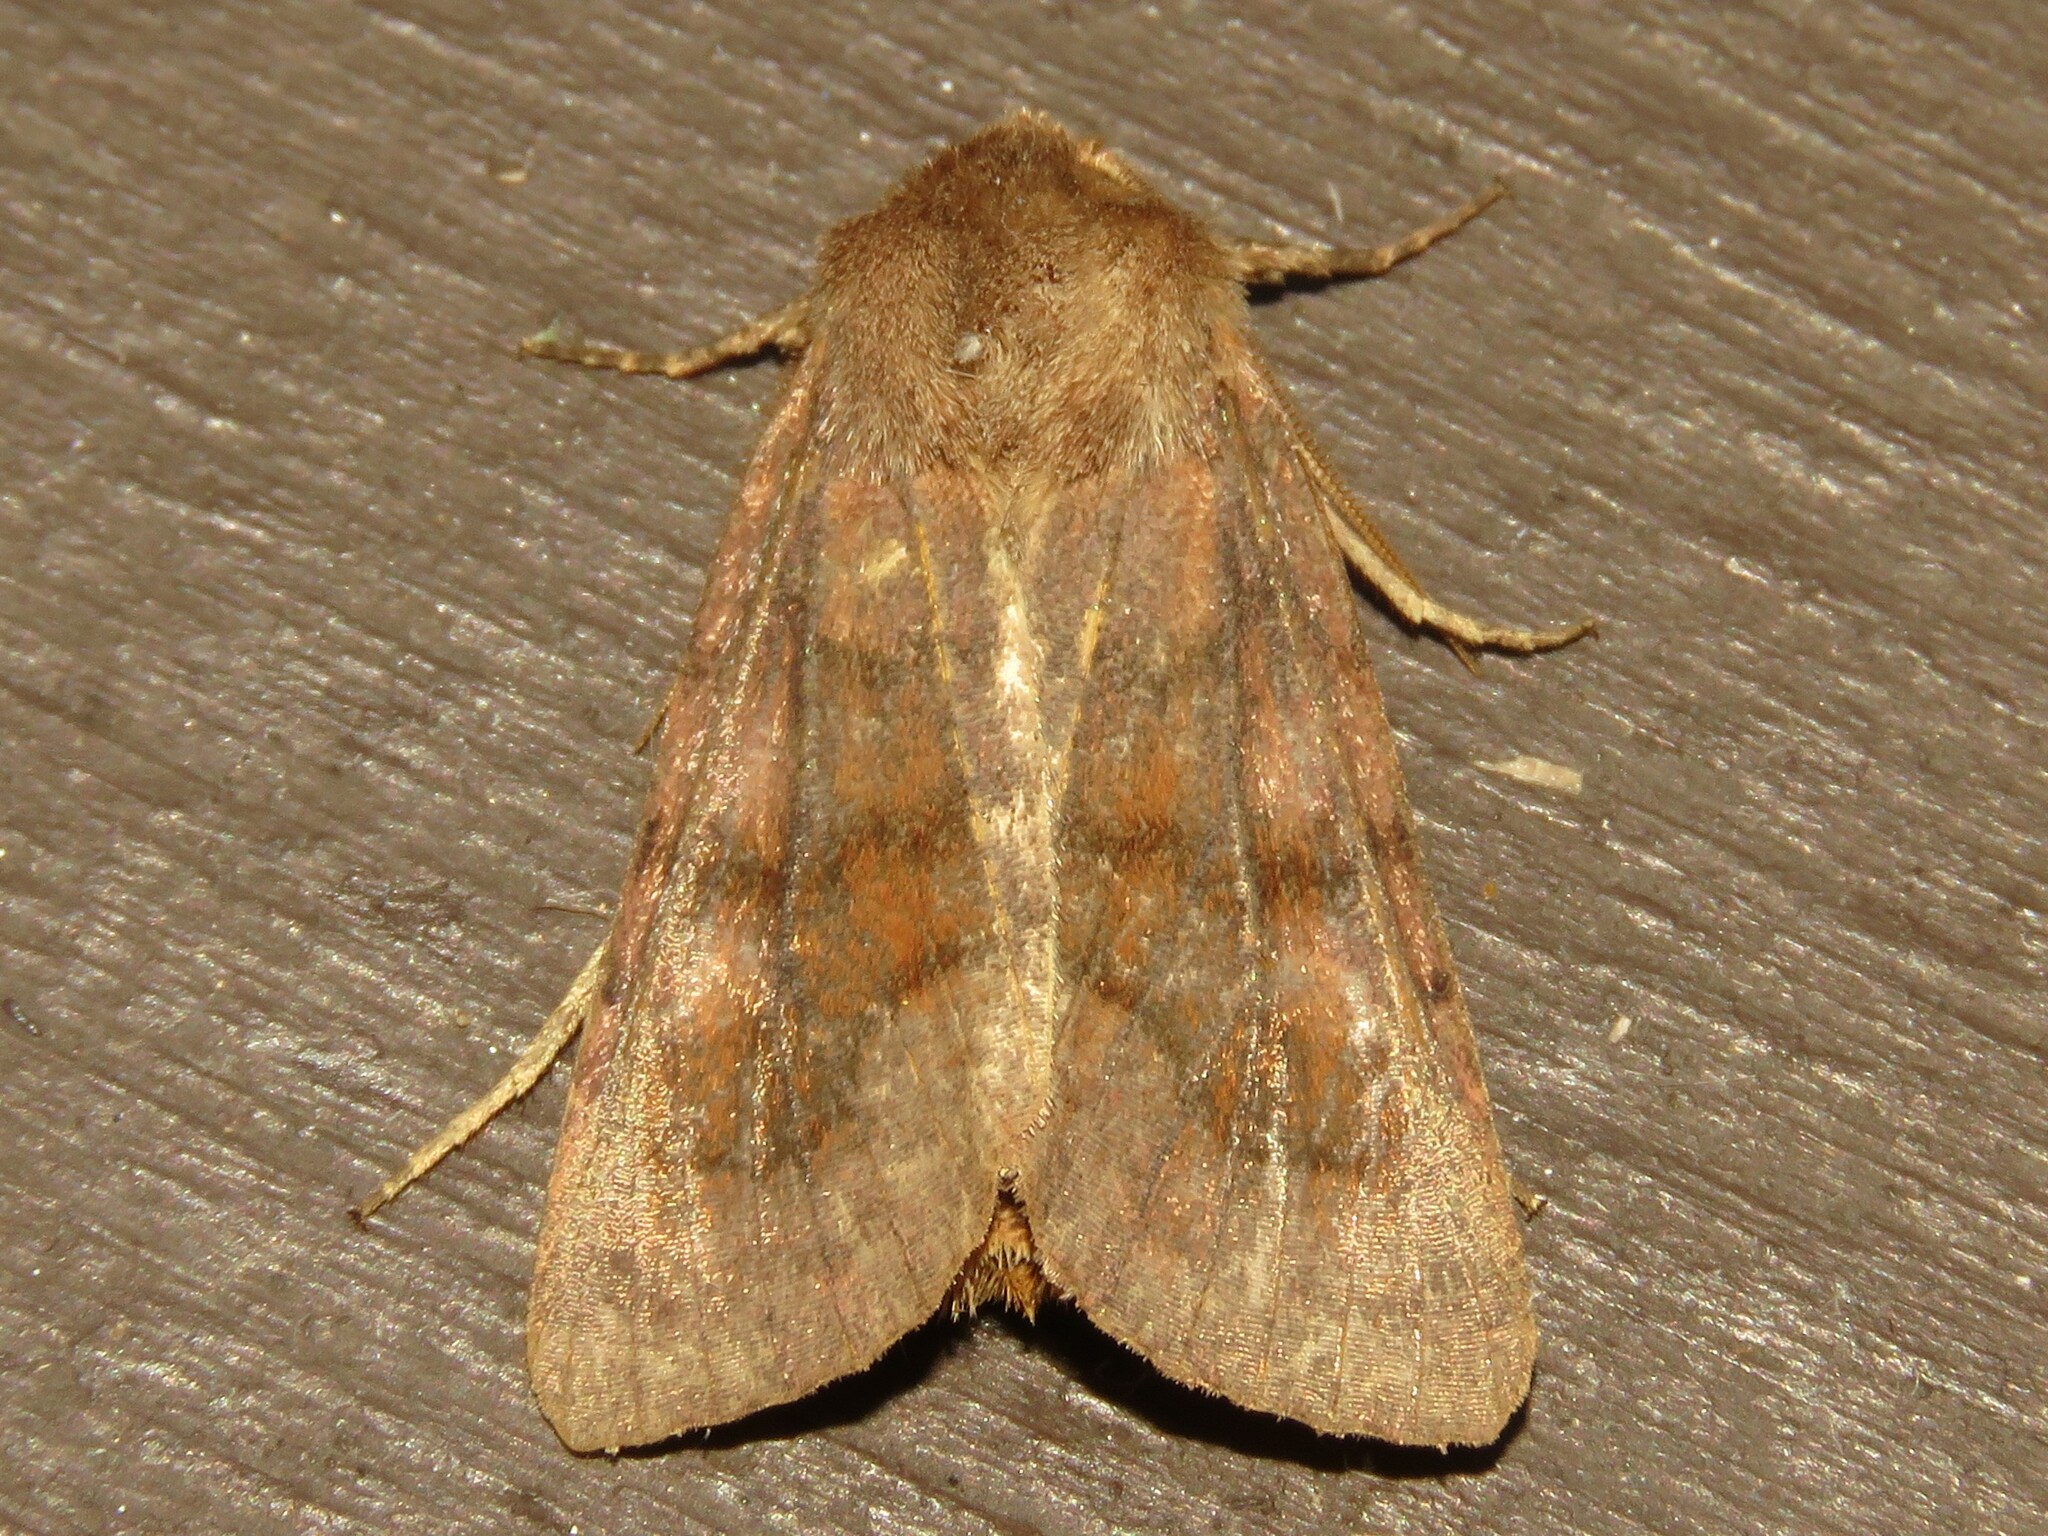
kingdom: Animalia
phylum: Arthropoda
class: Insecta
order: Lepidoptera
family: Noctuidae
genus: Nephelodes
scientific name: Nephelodes minians
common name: Bronzed cutworm
